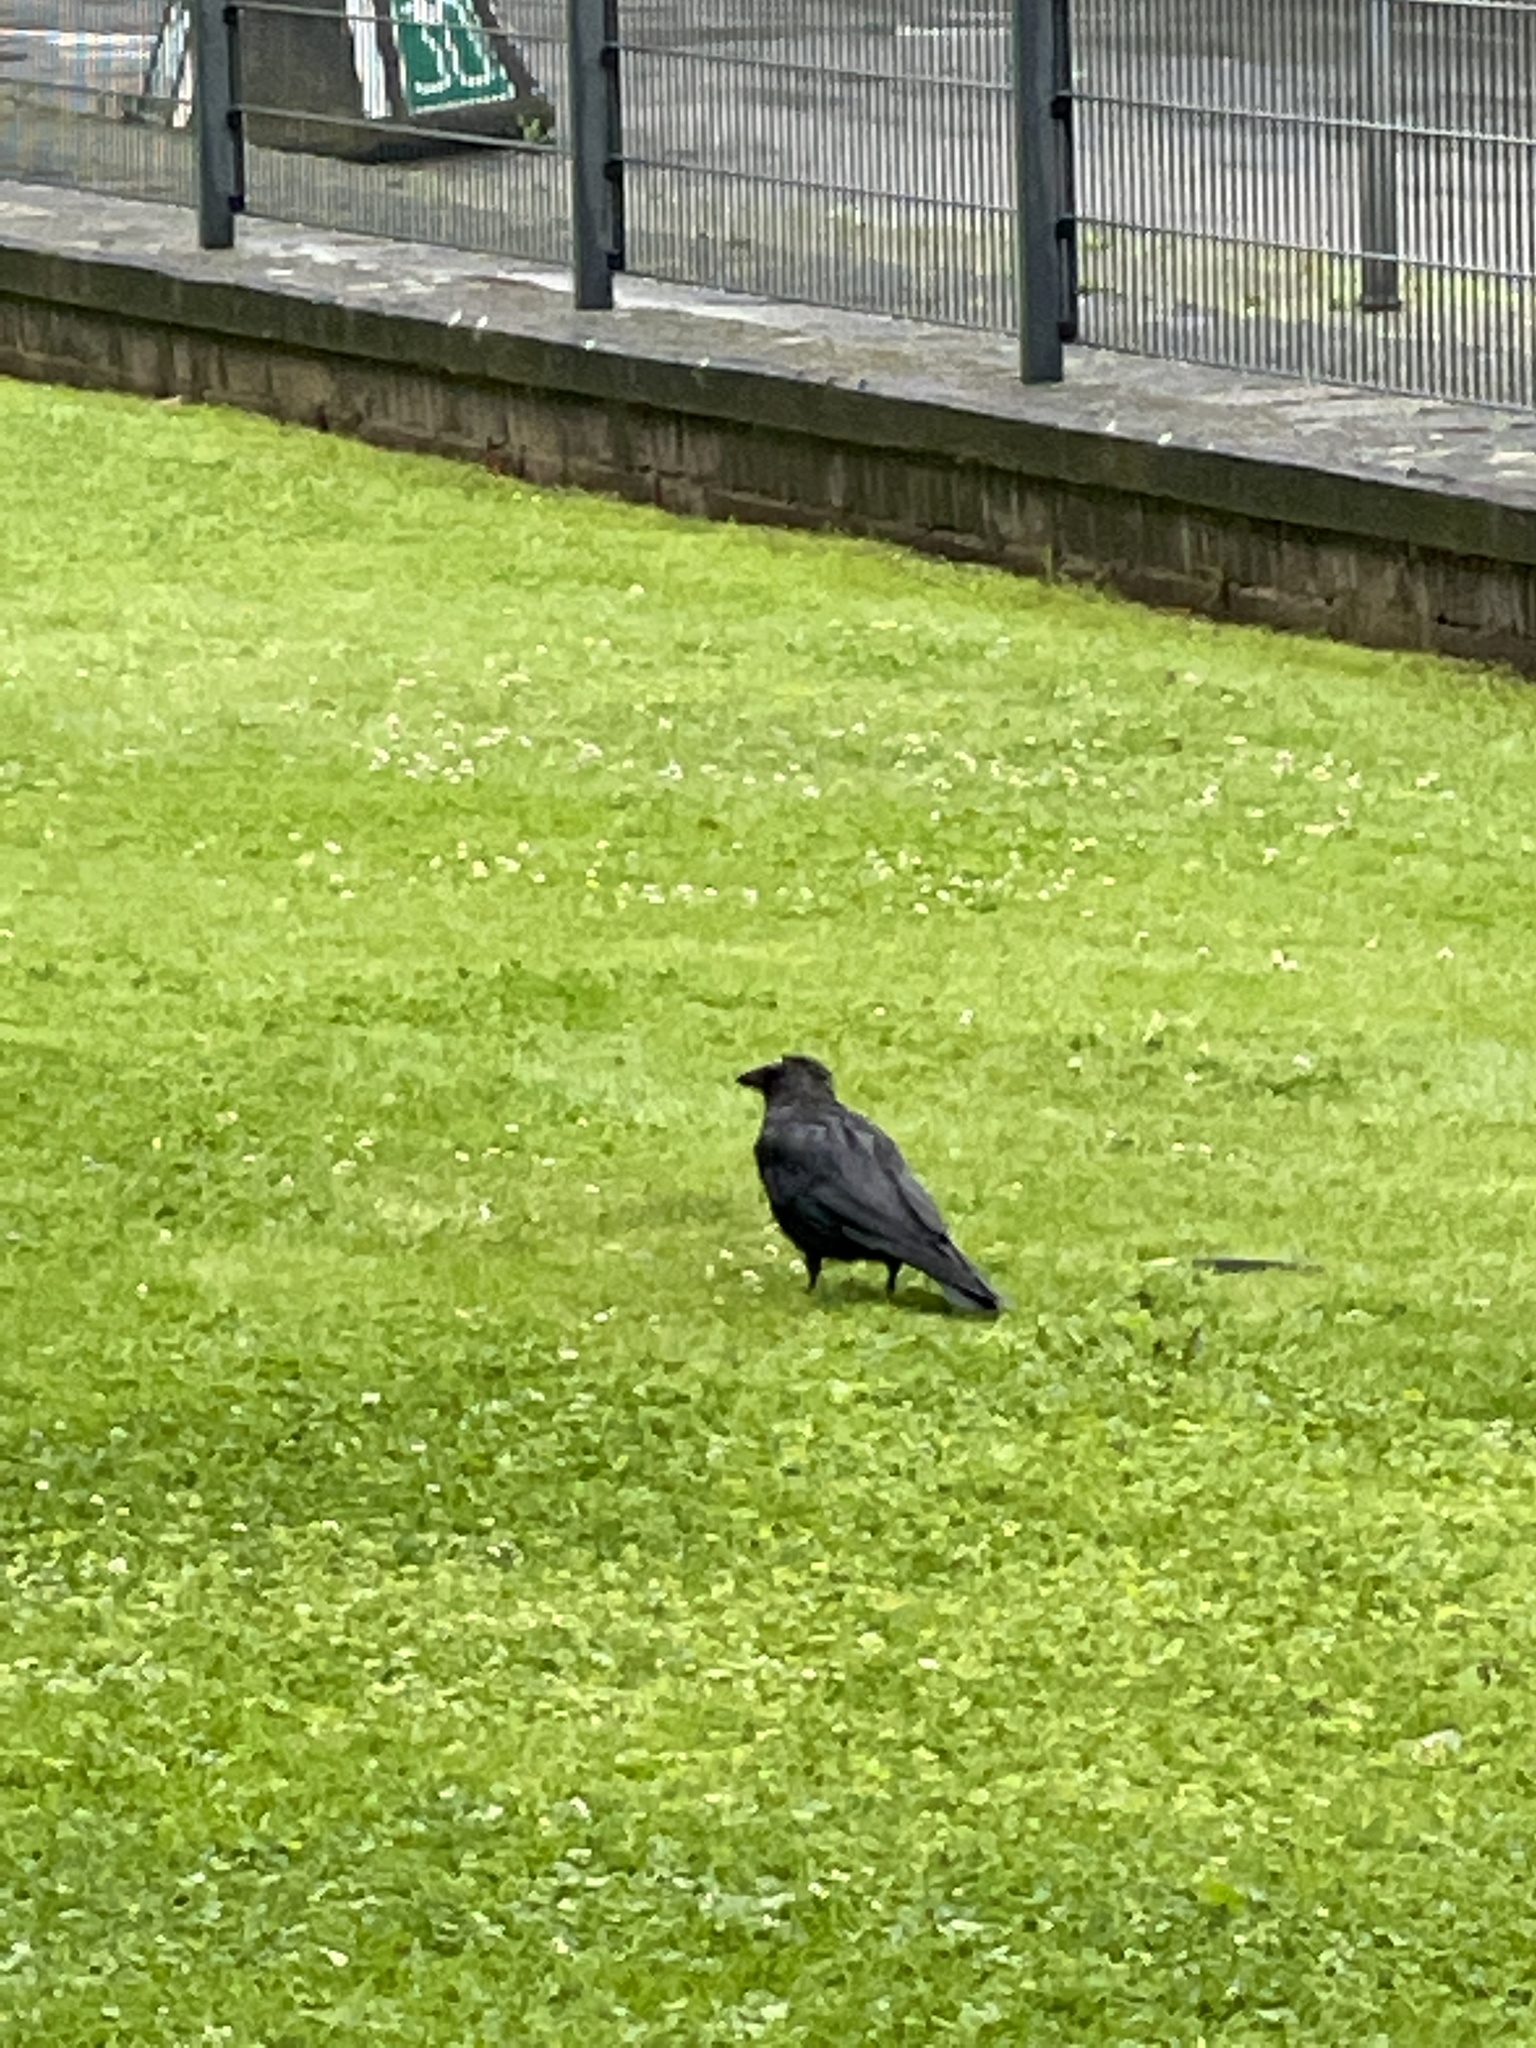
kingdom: Animalia
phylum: Chordata
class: Aves
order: Passeriformes
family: Corvidae
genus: Corvus
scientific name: Corvus corone
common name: Carrion crow
